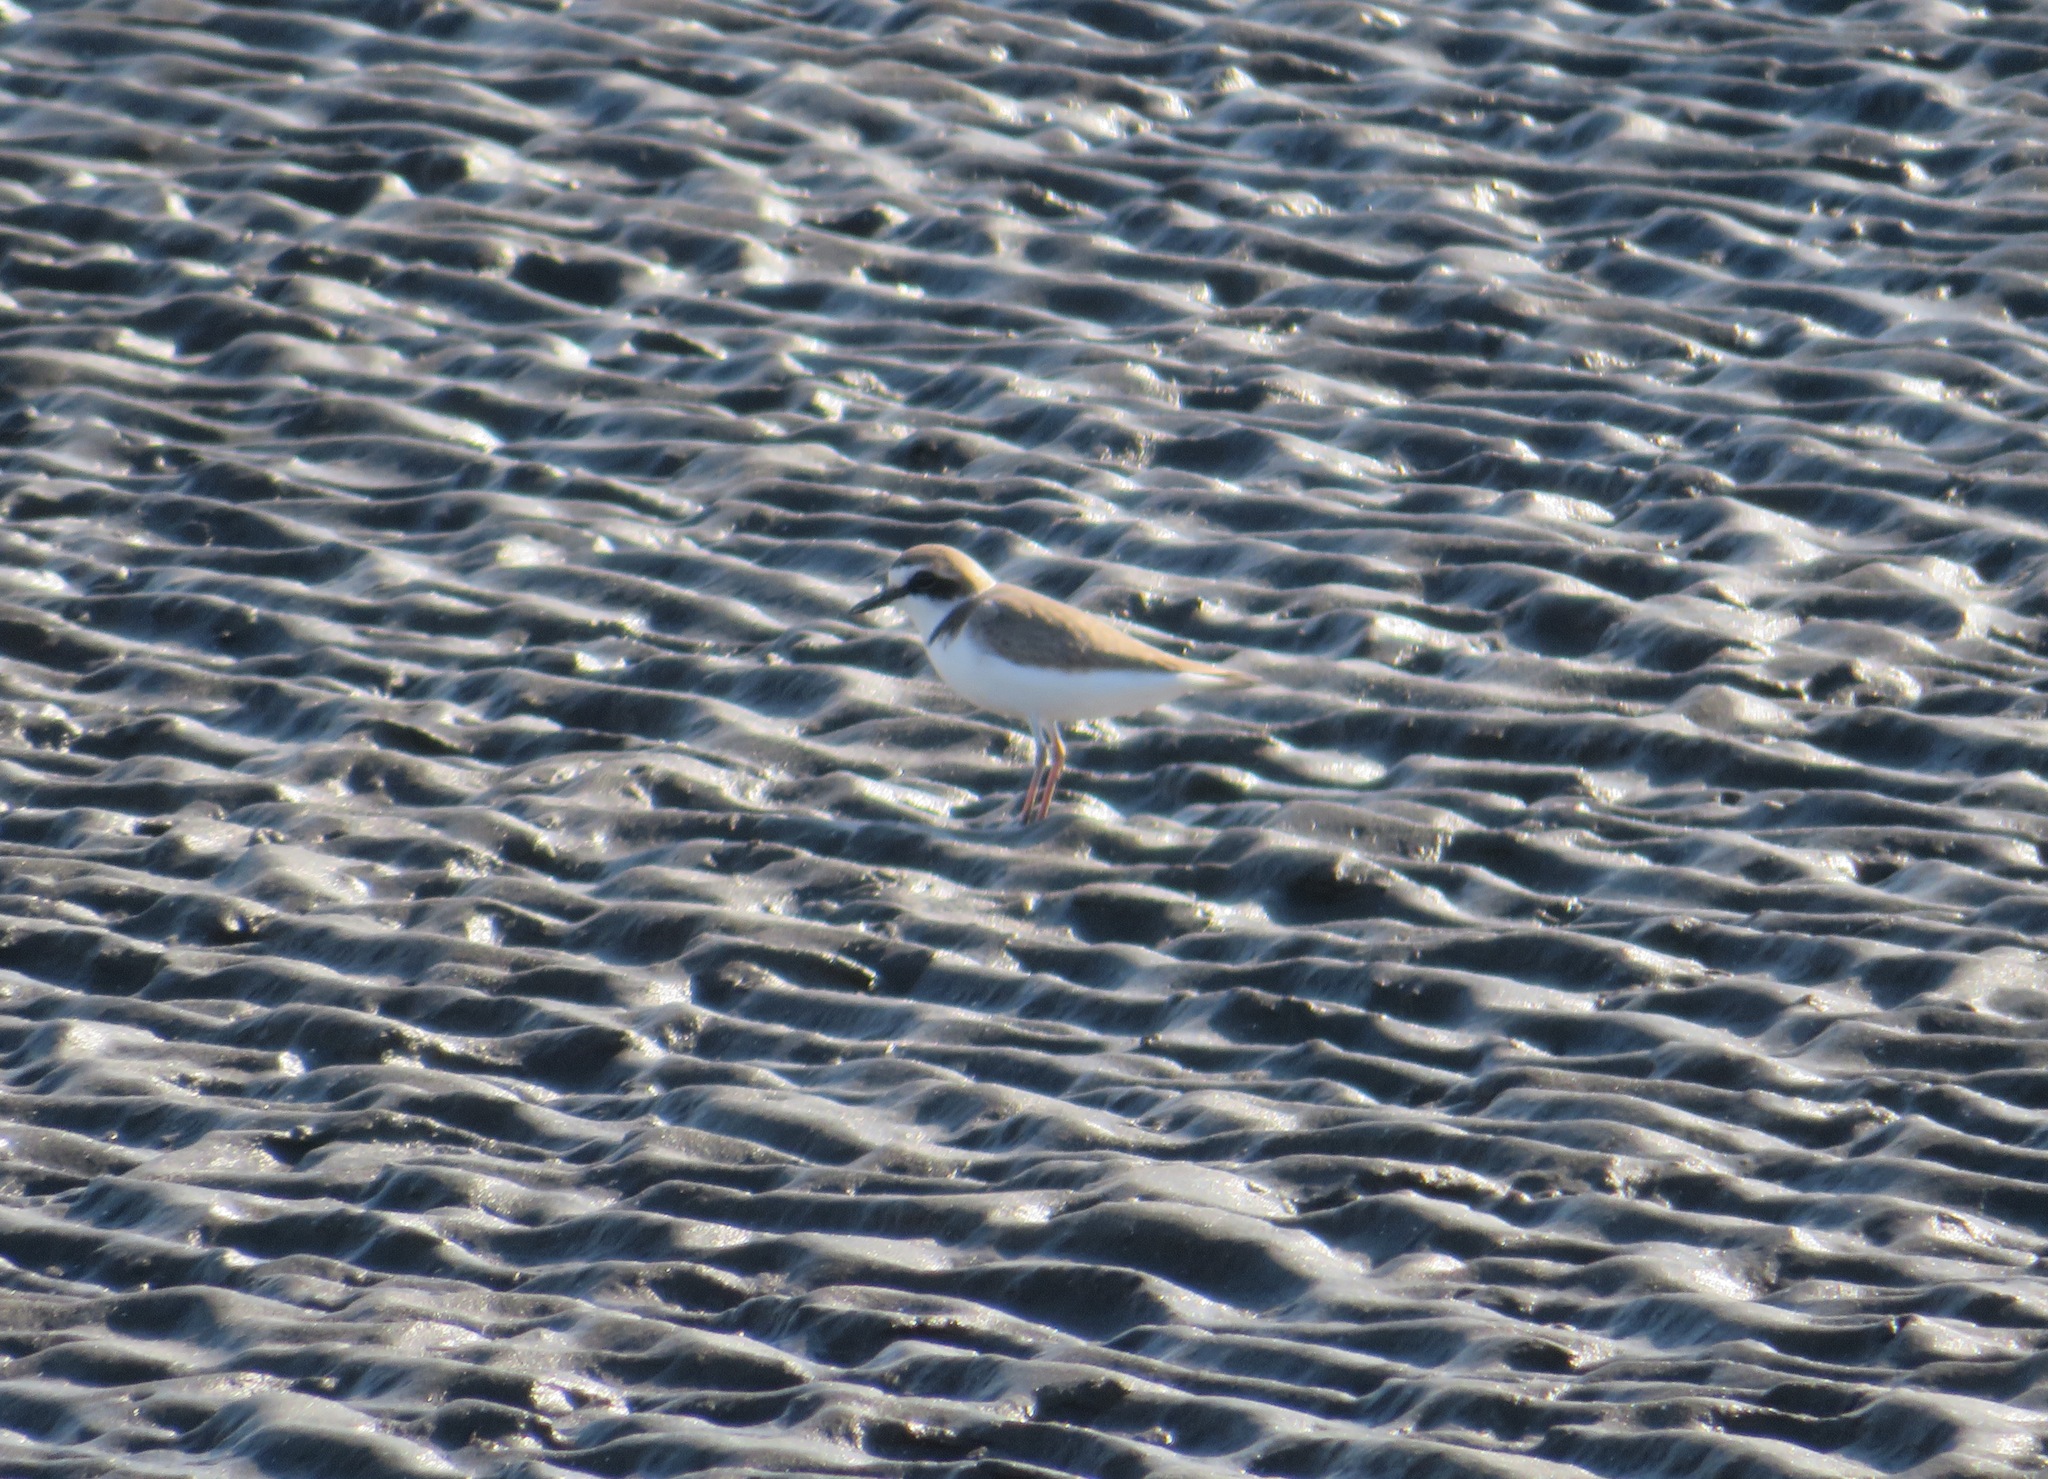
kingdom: Animalia
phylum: Chordata
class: Aves
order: Charadriiformes
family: Charadriidae
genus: Charadrius
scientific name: Charadrius alexandrinus
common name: Kentish plover
